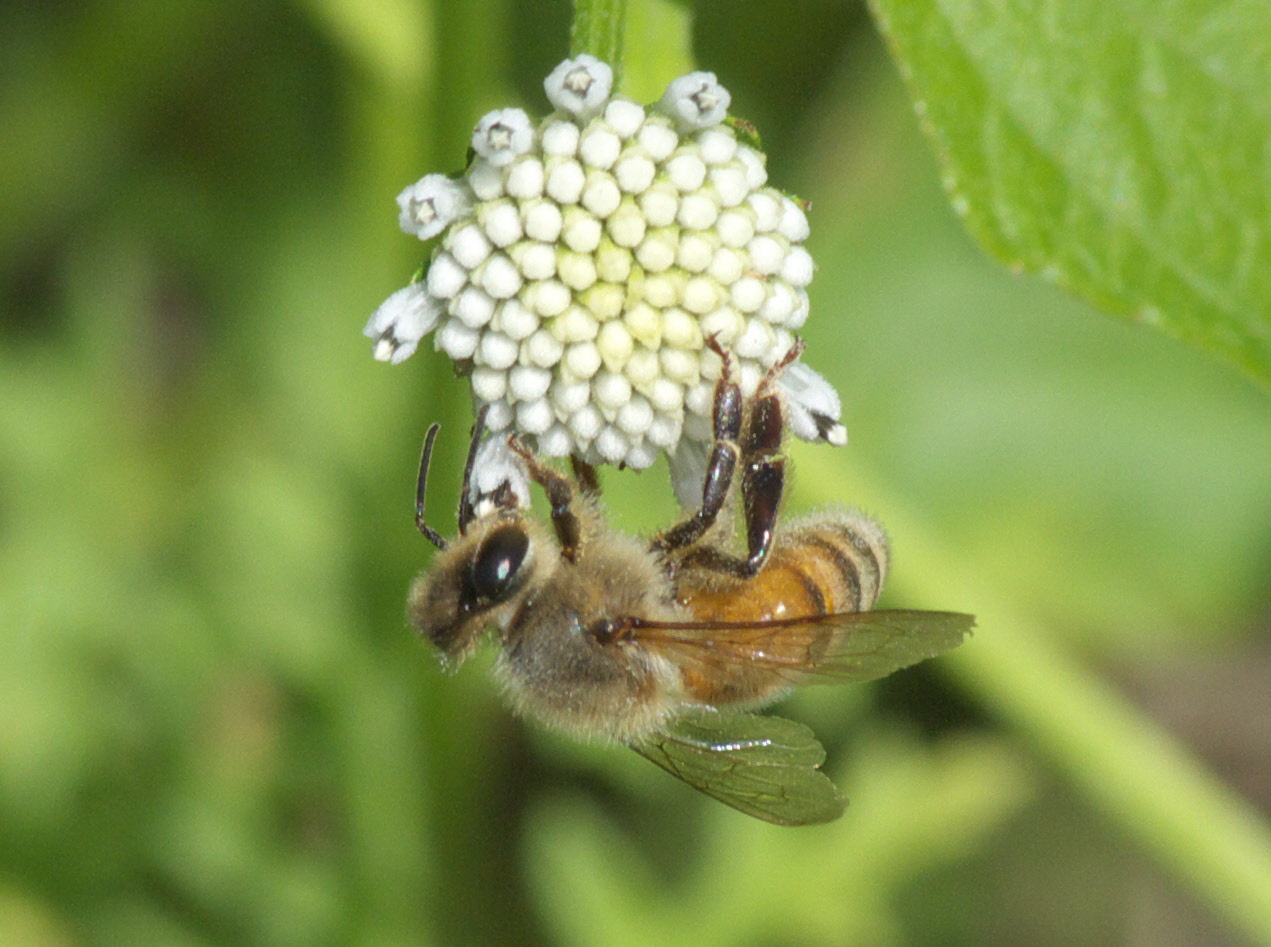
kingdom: Animalia
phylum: Arthropoda
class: Insecta
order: Hymenoptera
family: Apidae
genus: Apis
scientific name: Apis mellifera
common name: Honey bee
